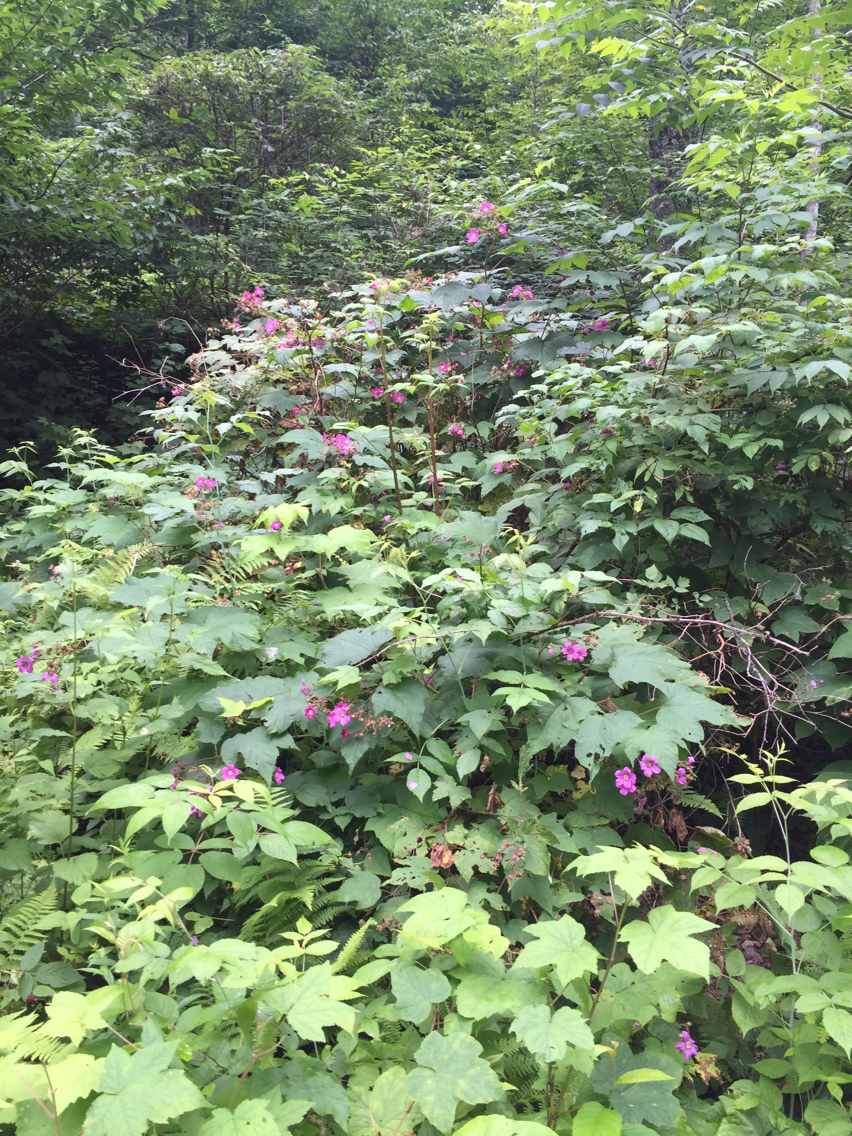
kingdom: Plantae
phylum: Tracheophyta
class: Magnoliopsida
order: Rosales
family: Rosaceae
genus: Rubus
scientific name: Rubus odoratus
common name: Purple-flowered raspberry
